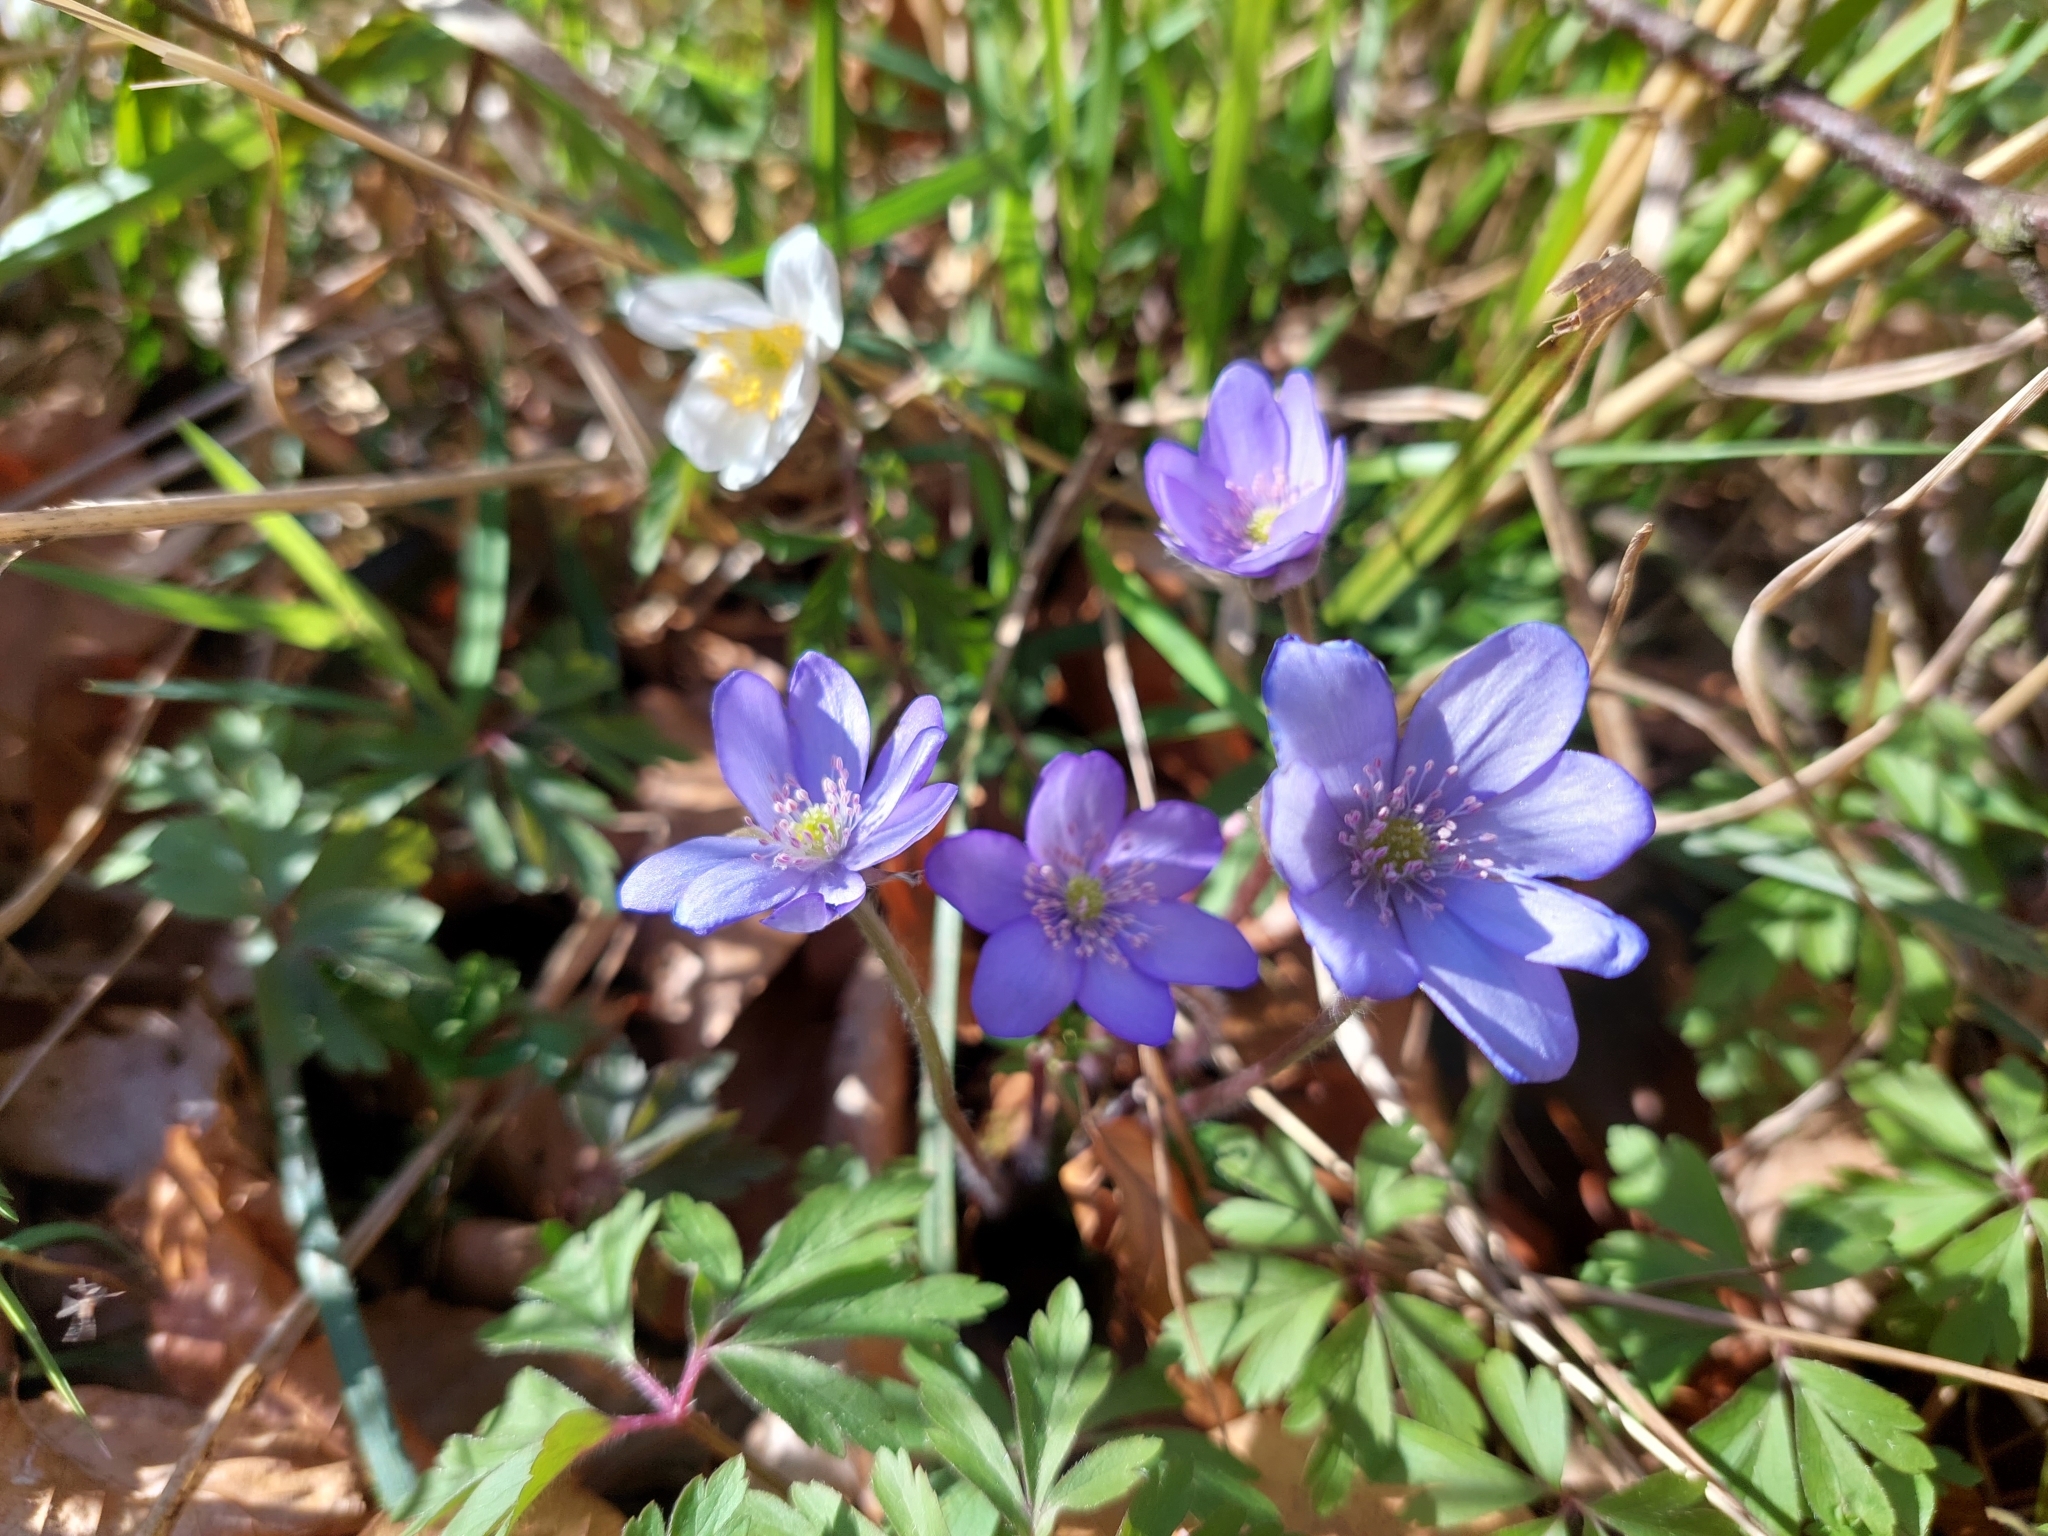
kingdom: Plantae
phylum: Tracheophyta
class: Magnoliopsida
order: Ranunculales
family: Ranunculaceae
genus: Hepatica
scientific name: Hepatica nobilis
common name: Liverleaf
